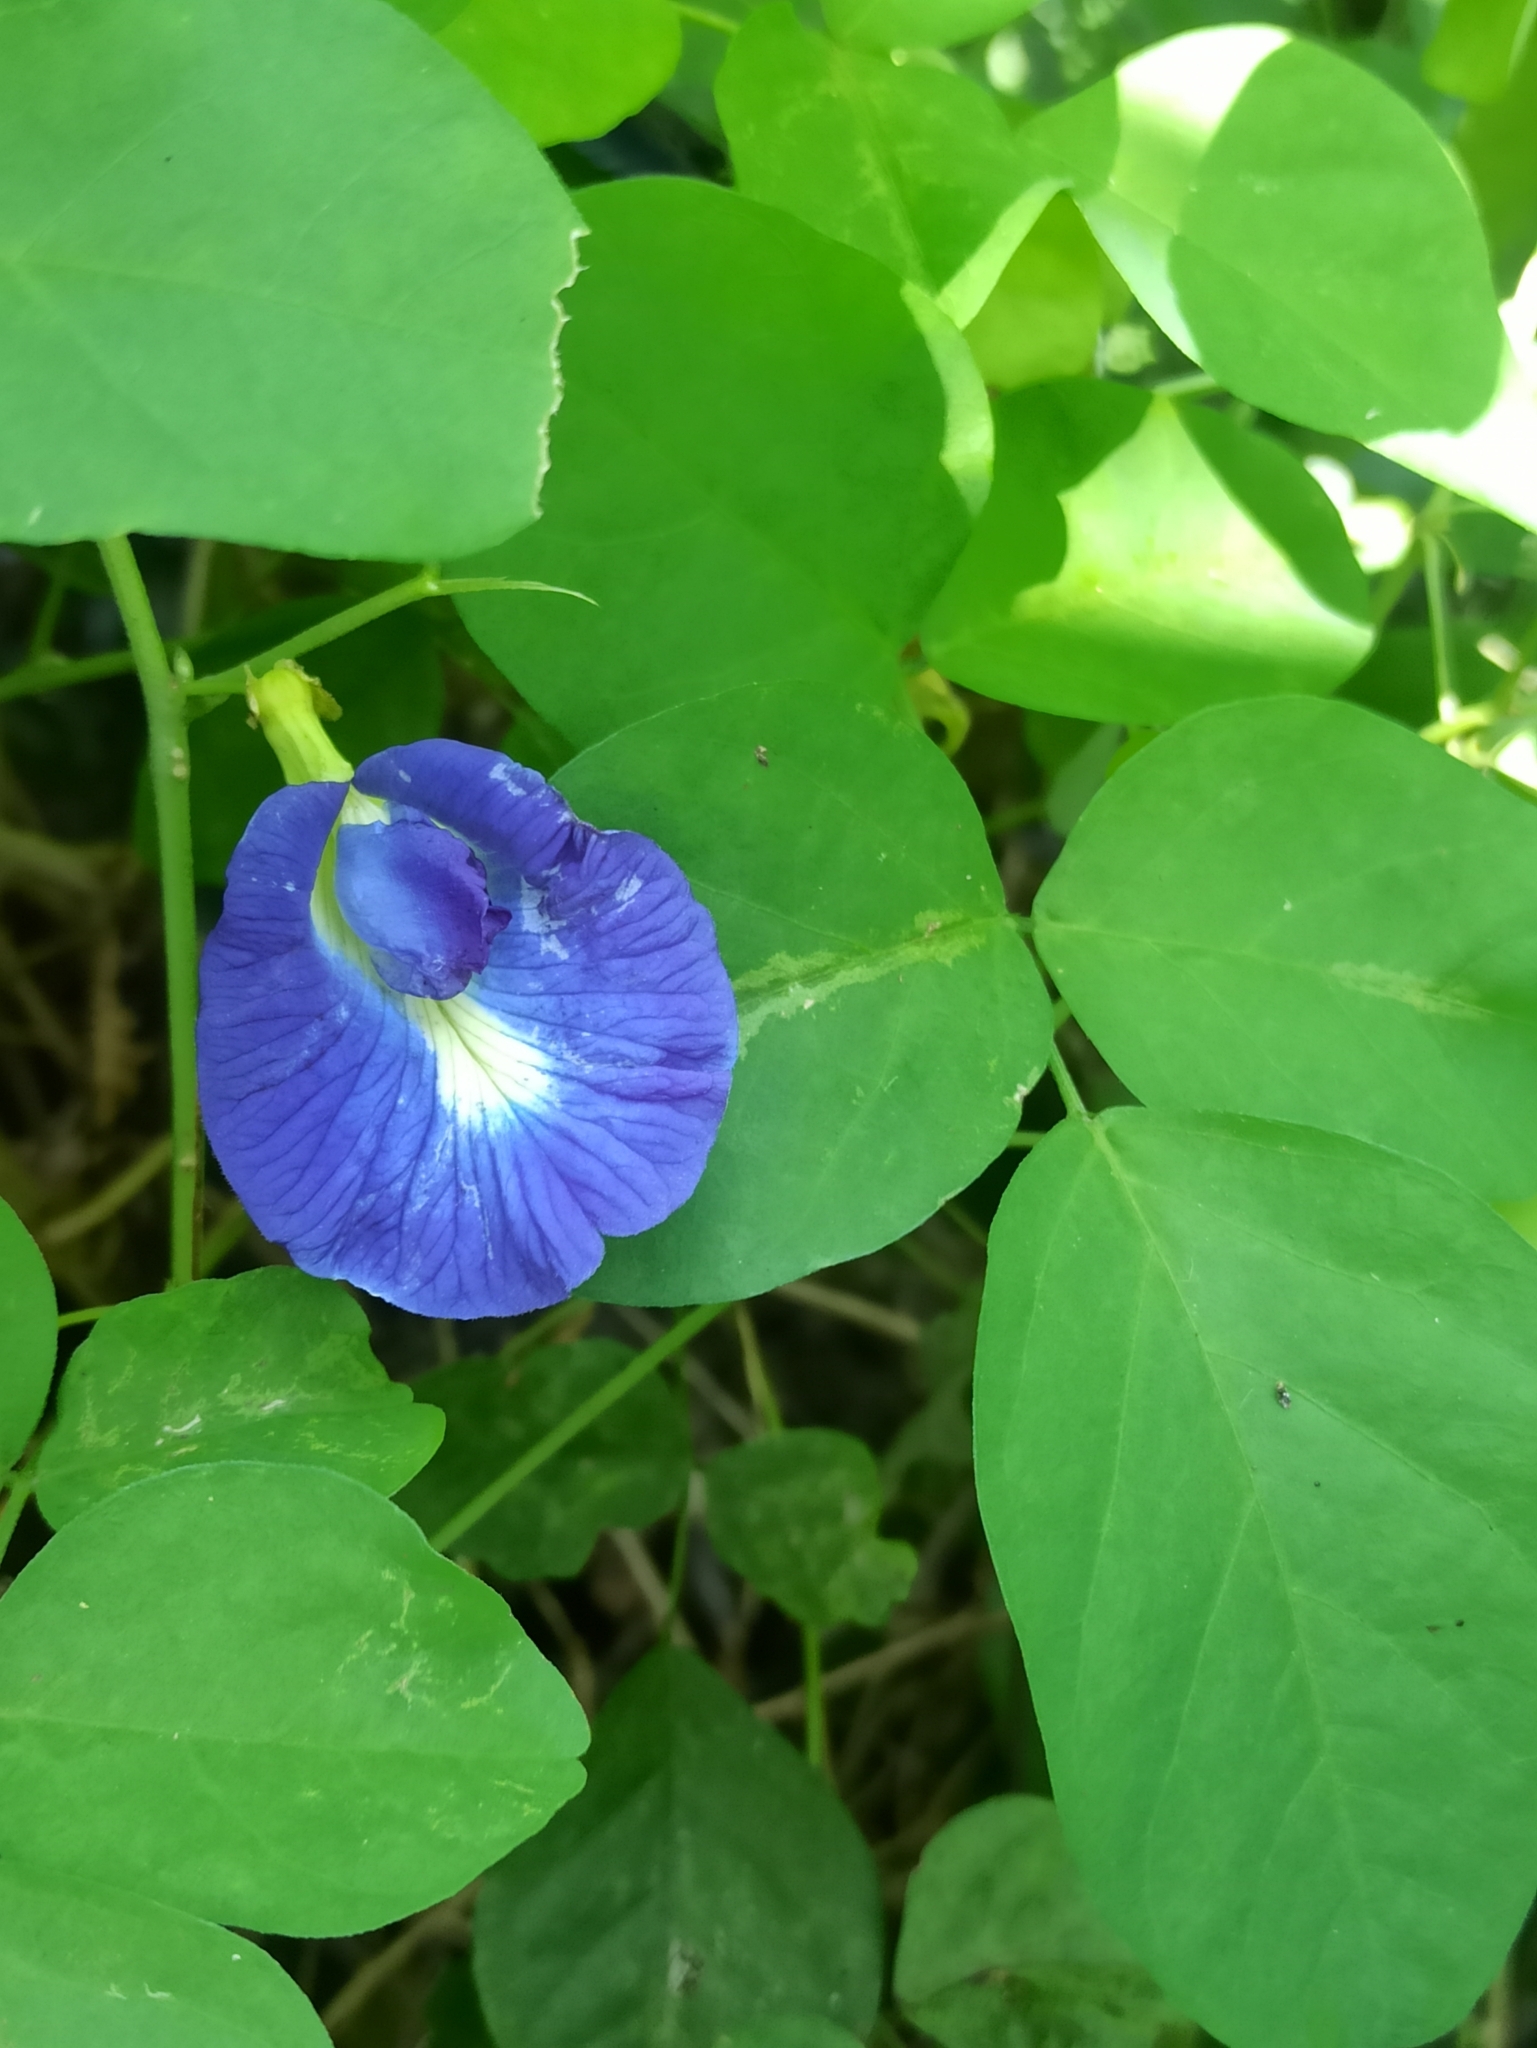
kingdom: Plantae
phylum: Tracheophyta
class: Magnoliopsida
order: Fabales
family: Fabaceae
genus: Clitoria
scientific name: Clitoria ternatea
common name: Asian pigeonwings
